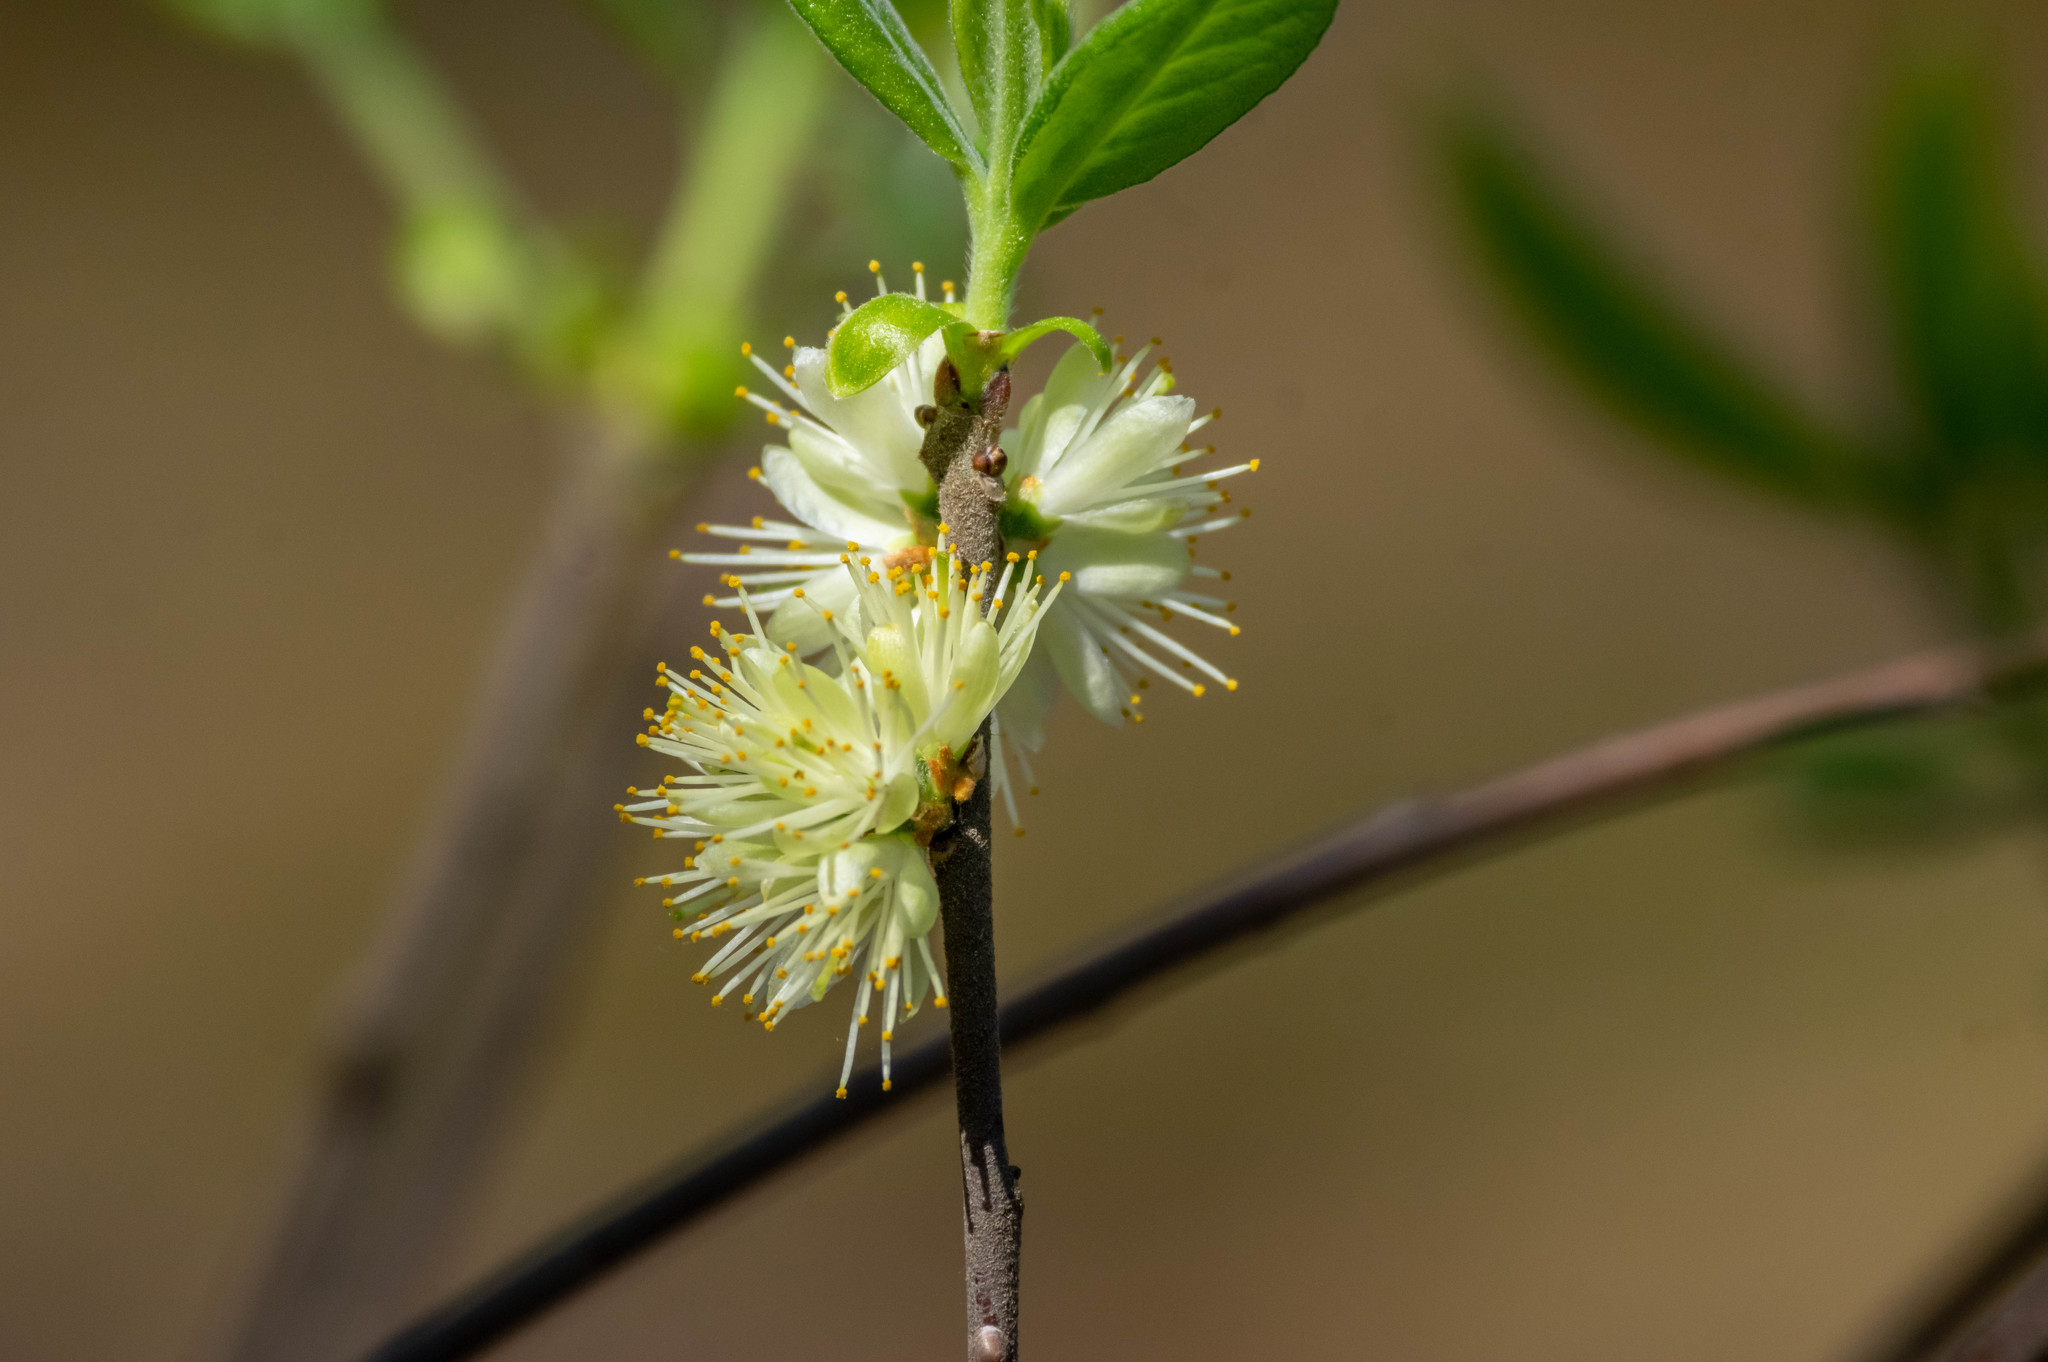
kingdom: Plantae
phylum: Tracheophyta
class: Magnoliopsida
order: Ericales
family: Symplocaceae
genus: Symplocos
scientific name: Symplocos tinctoria
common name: Horse-sugar
